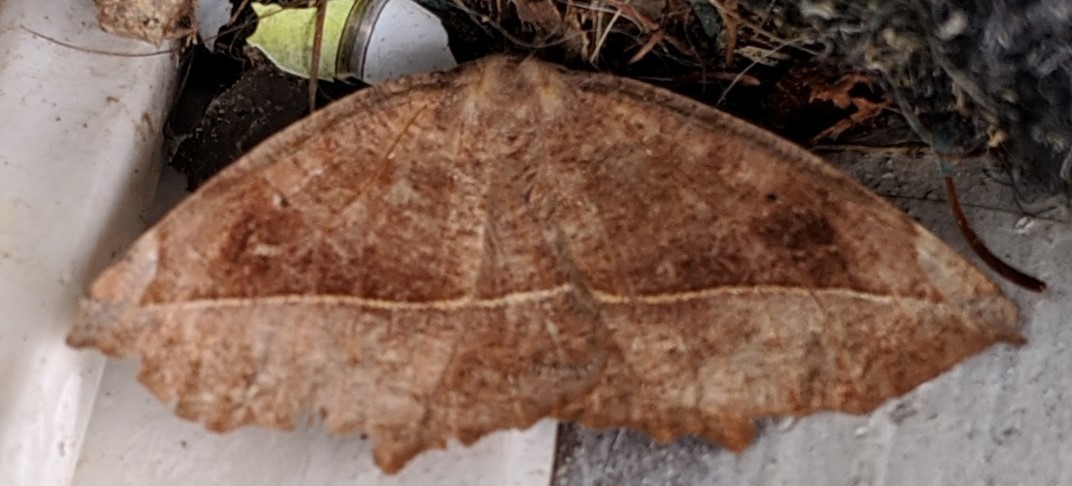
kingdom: Animalia
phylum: Arthropoda
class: Insecta
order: Lepidoptera
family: Geometridae
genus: Eutrapela
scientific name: Eutrapela clemataria
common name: Curved-toothed geometer
